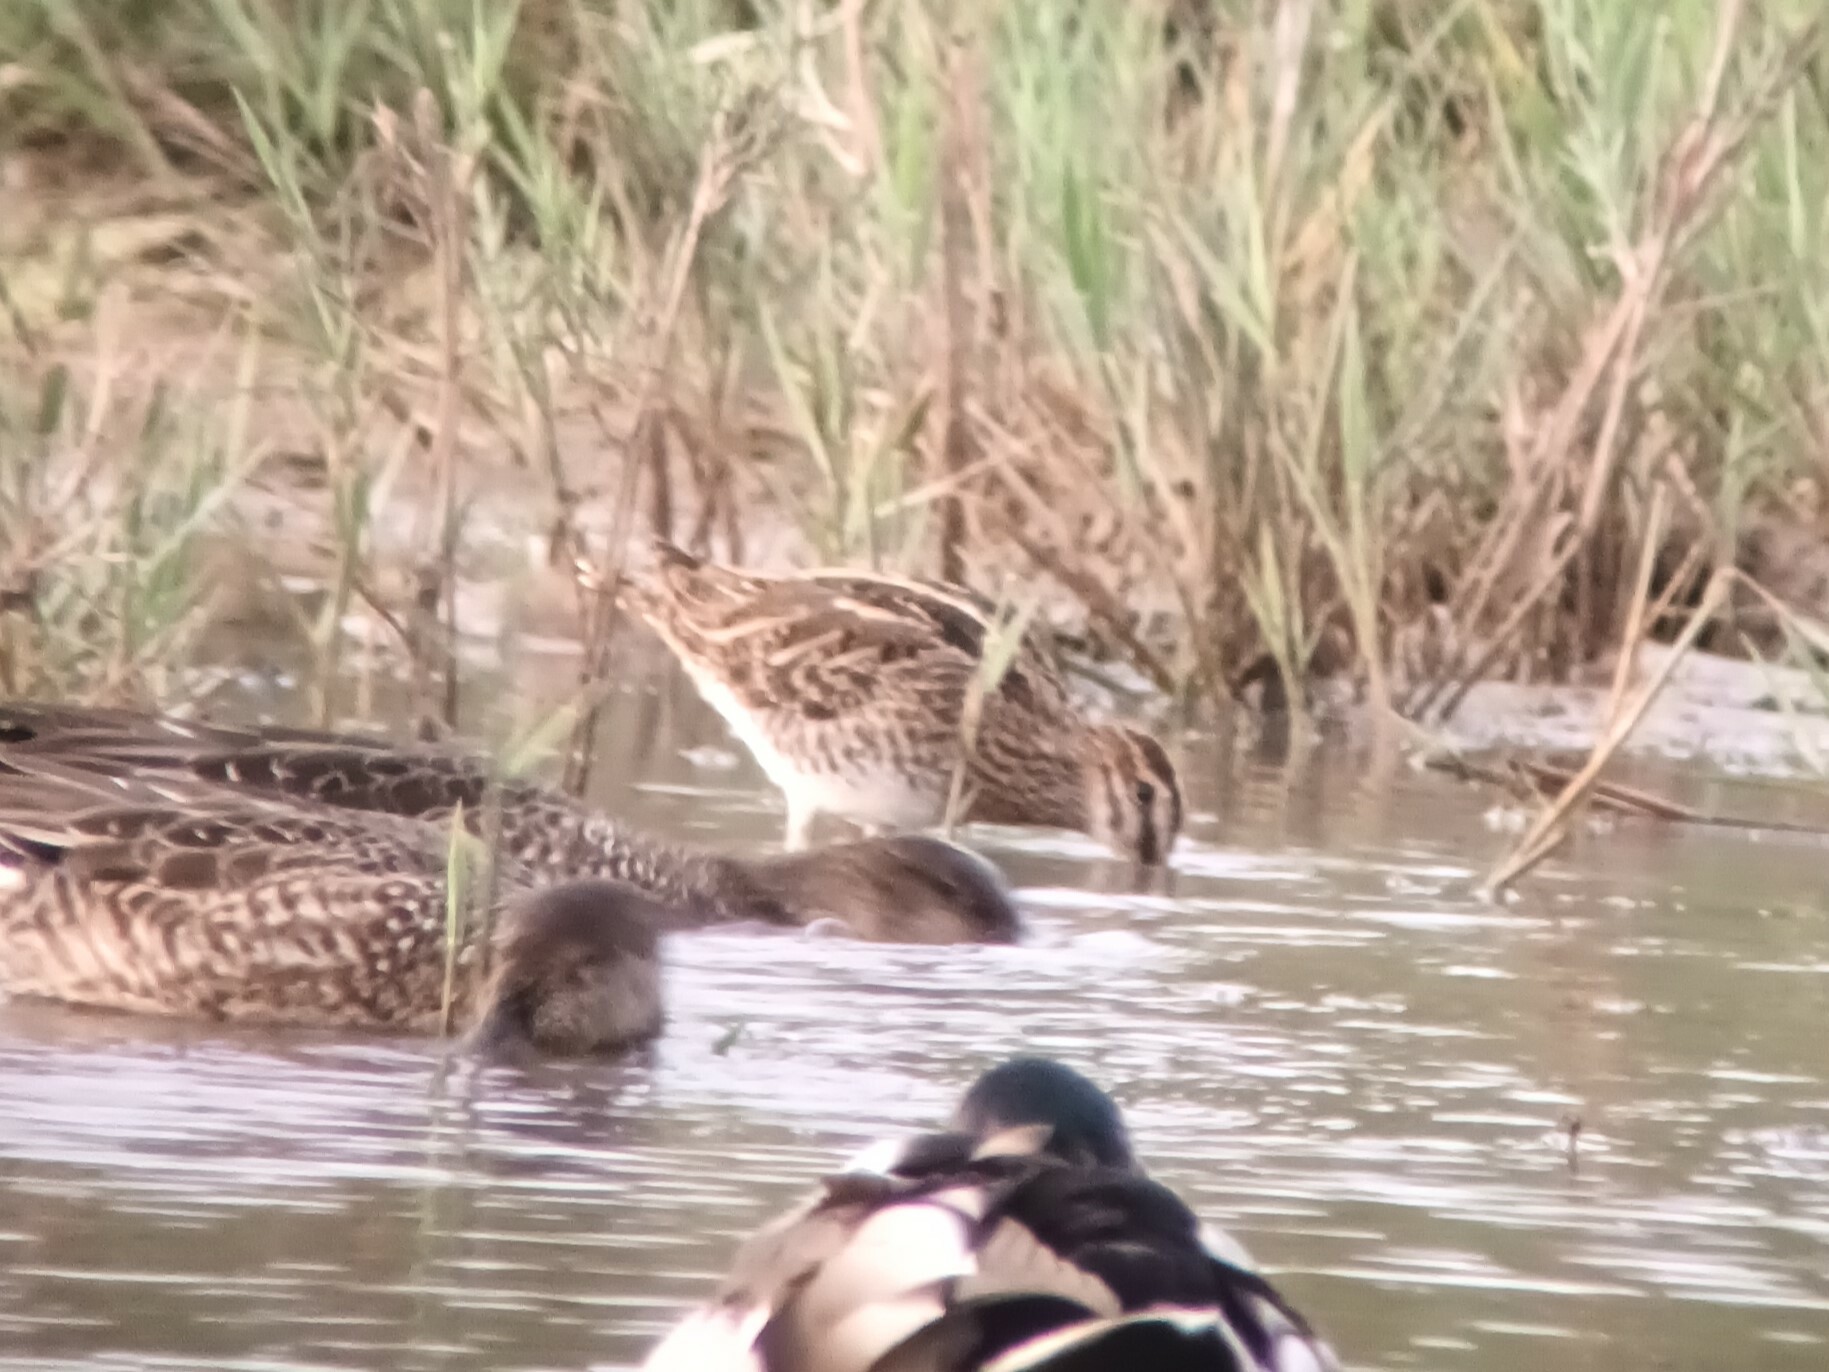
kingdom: Animalia
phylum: Chordata
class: Aves
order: Charadriiformes
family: Scolopacidae
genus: Gallinago
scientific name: Gallinago gallinago
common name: Common snipe
